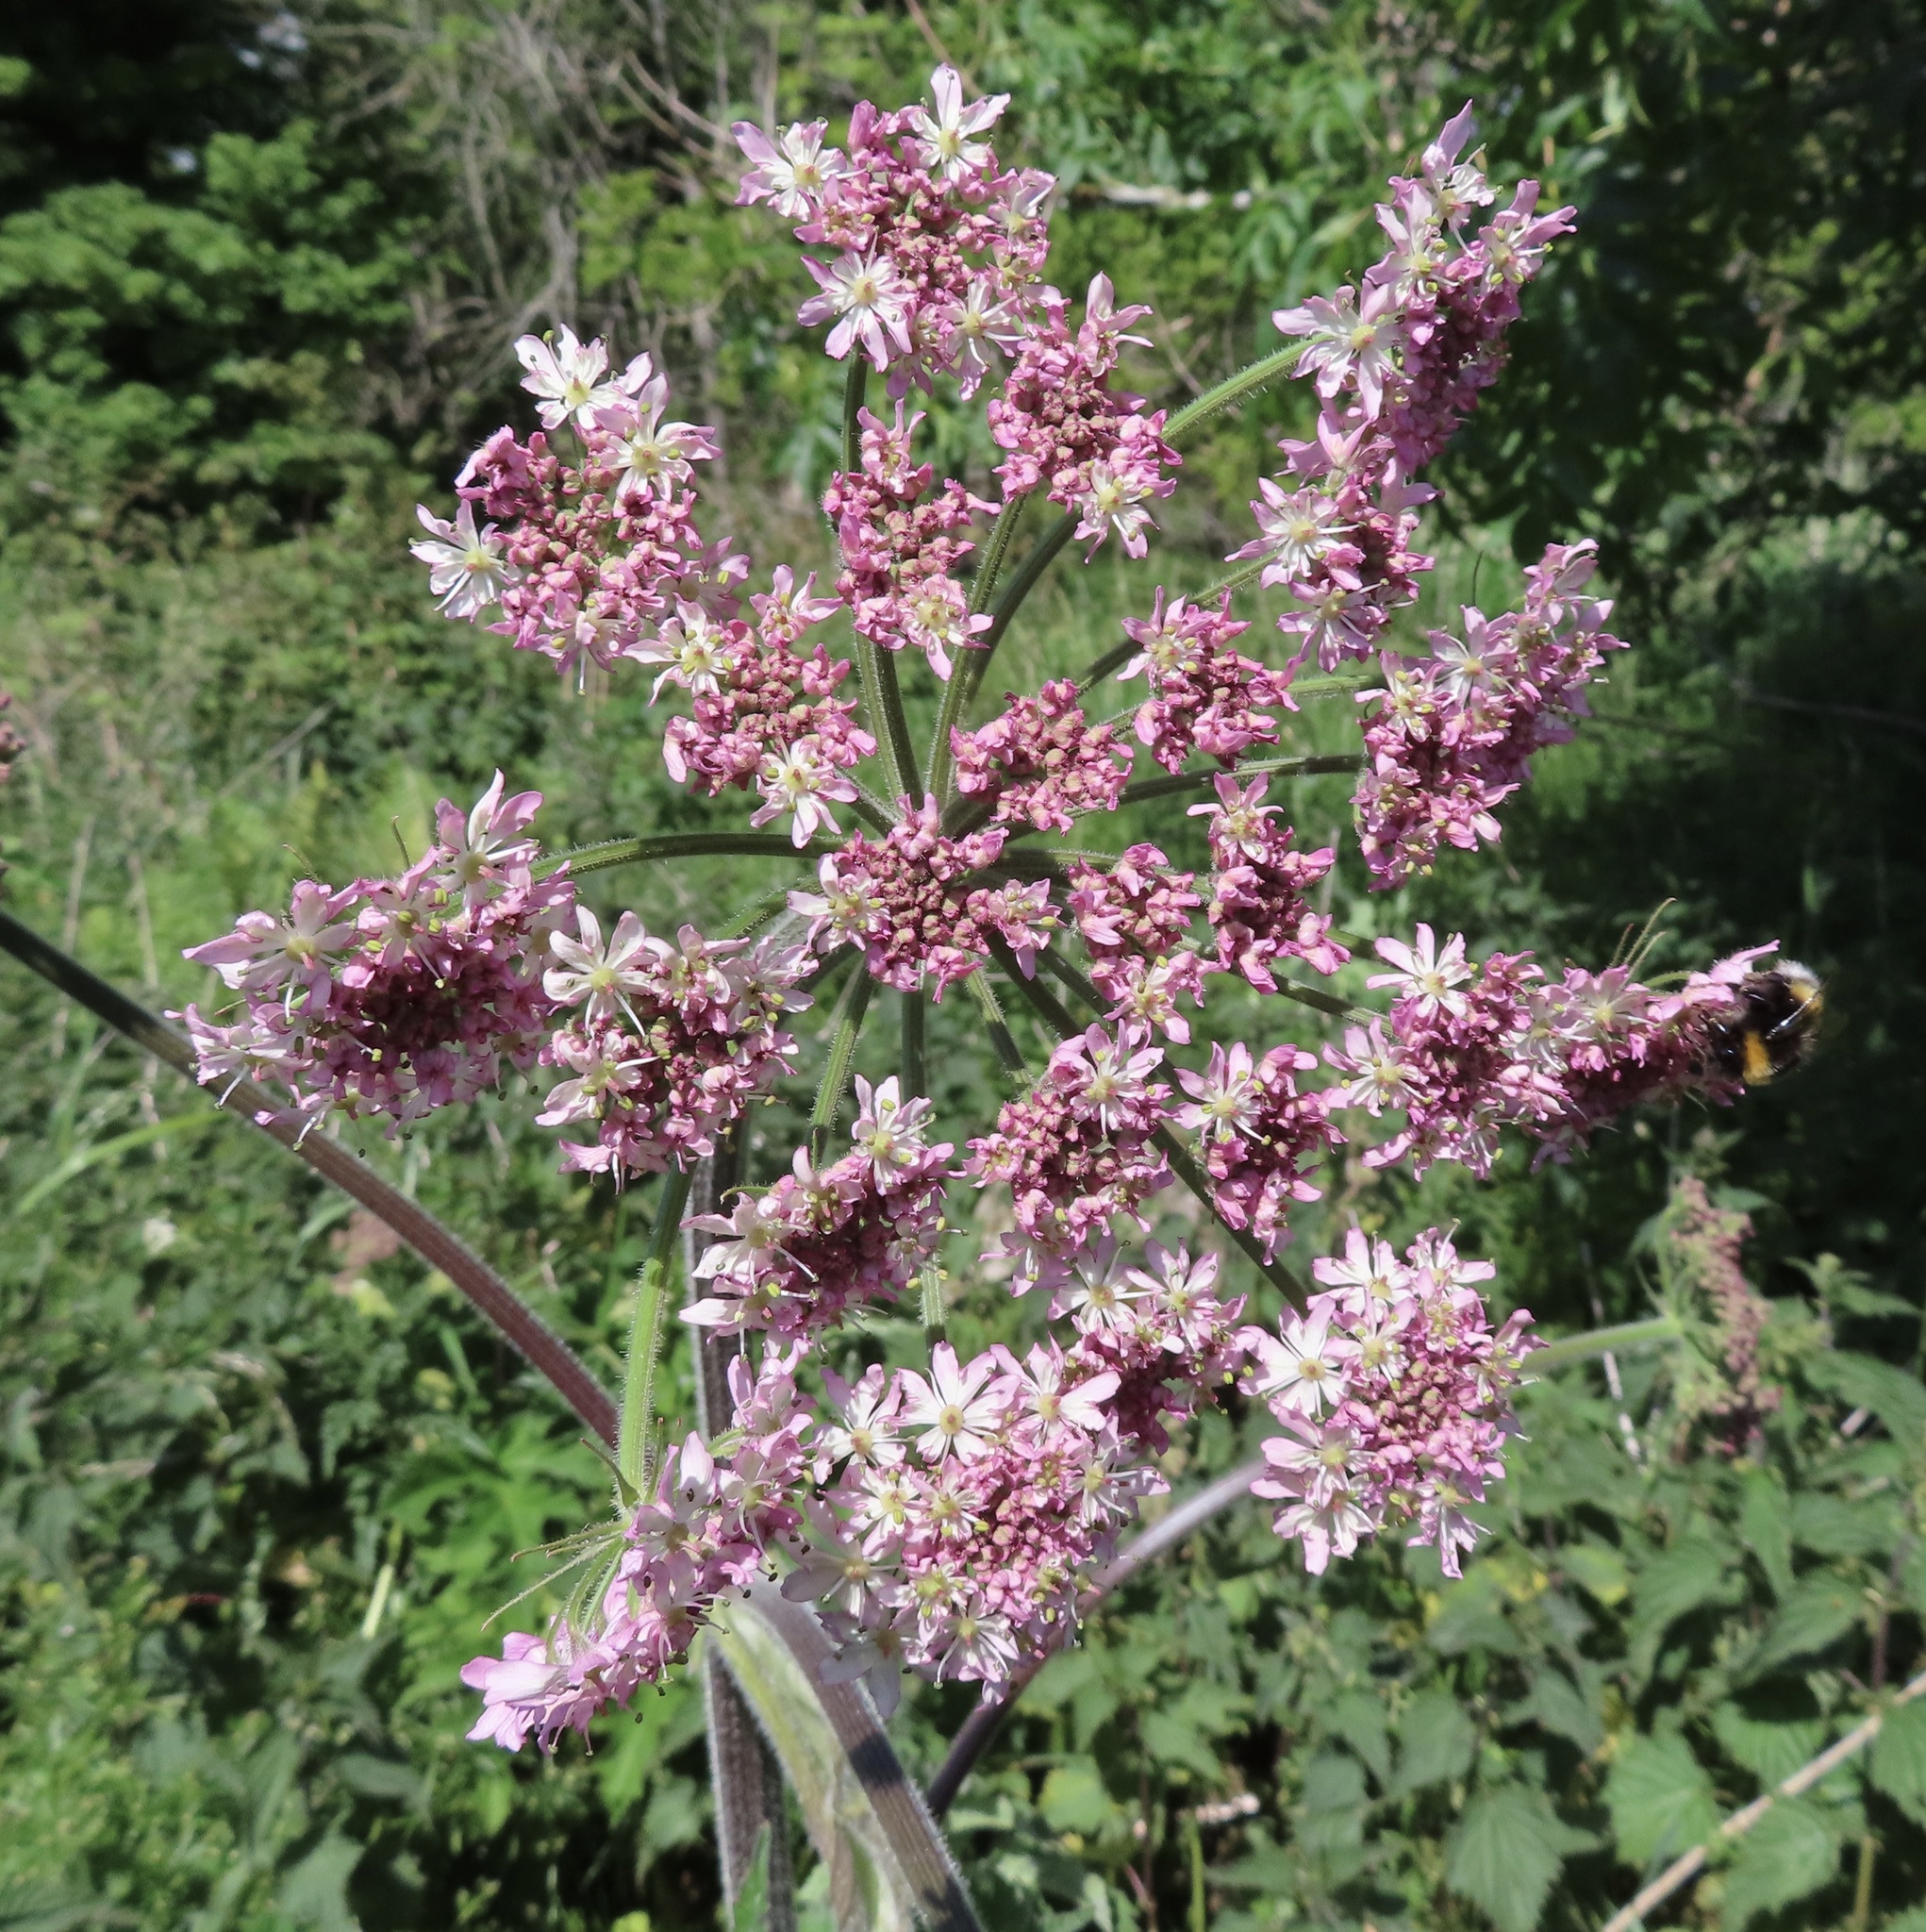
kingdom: Plantae
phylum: Tracheophyta
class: Magnoliopsida
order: Apiales
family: Apiaceae
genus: Heracleum
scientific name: Heracleum sphondylium
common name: Hogweed
